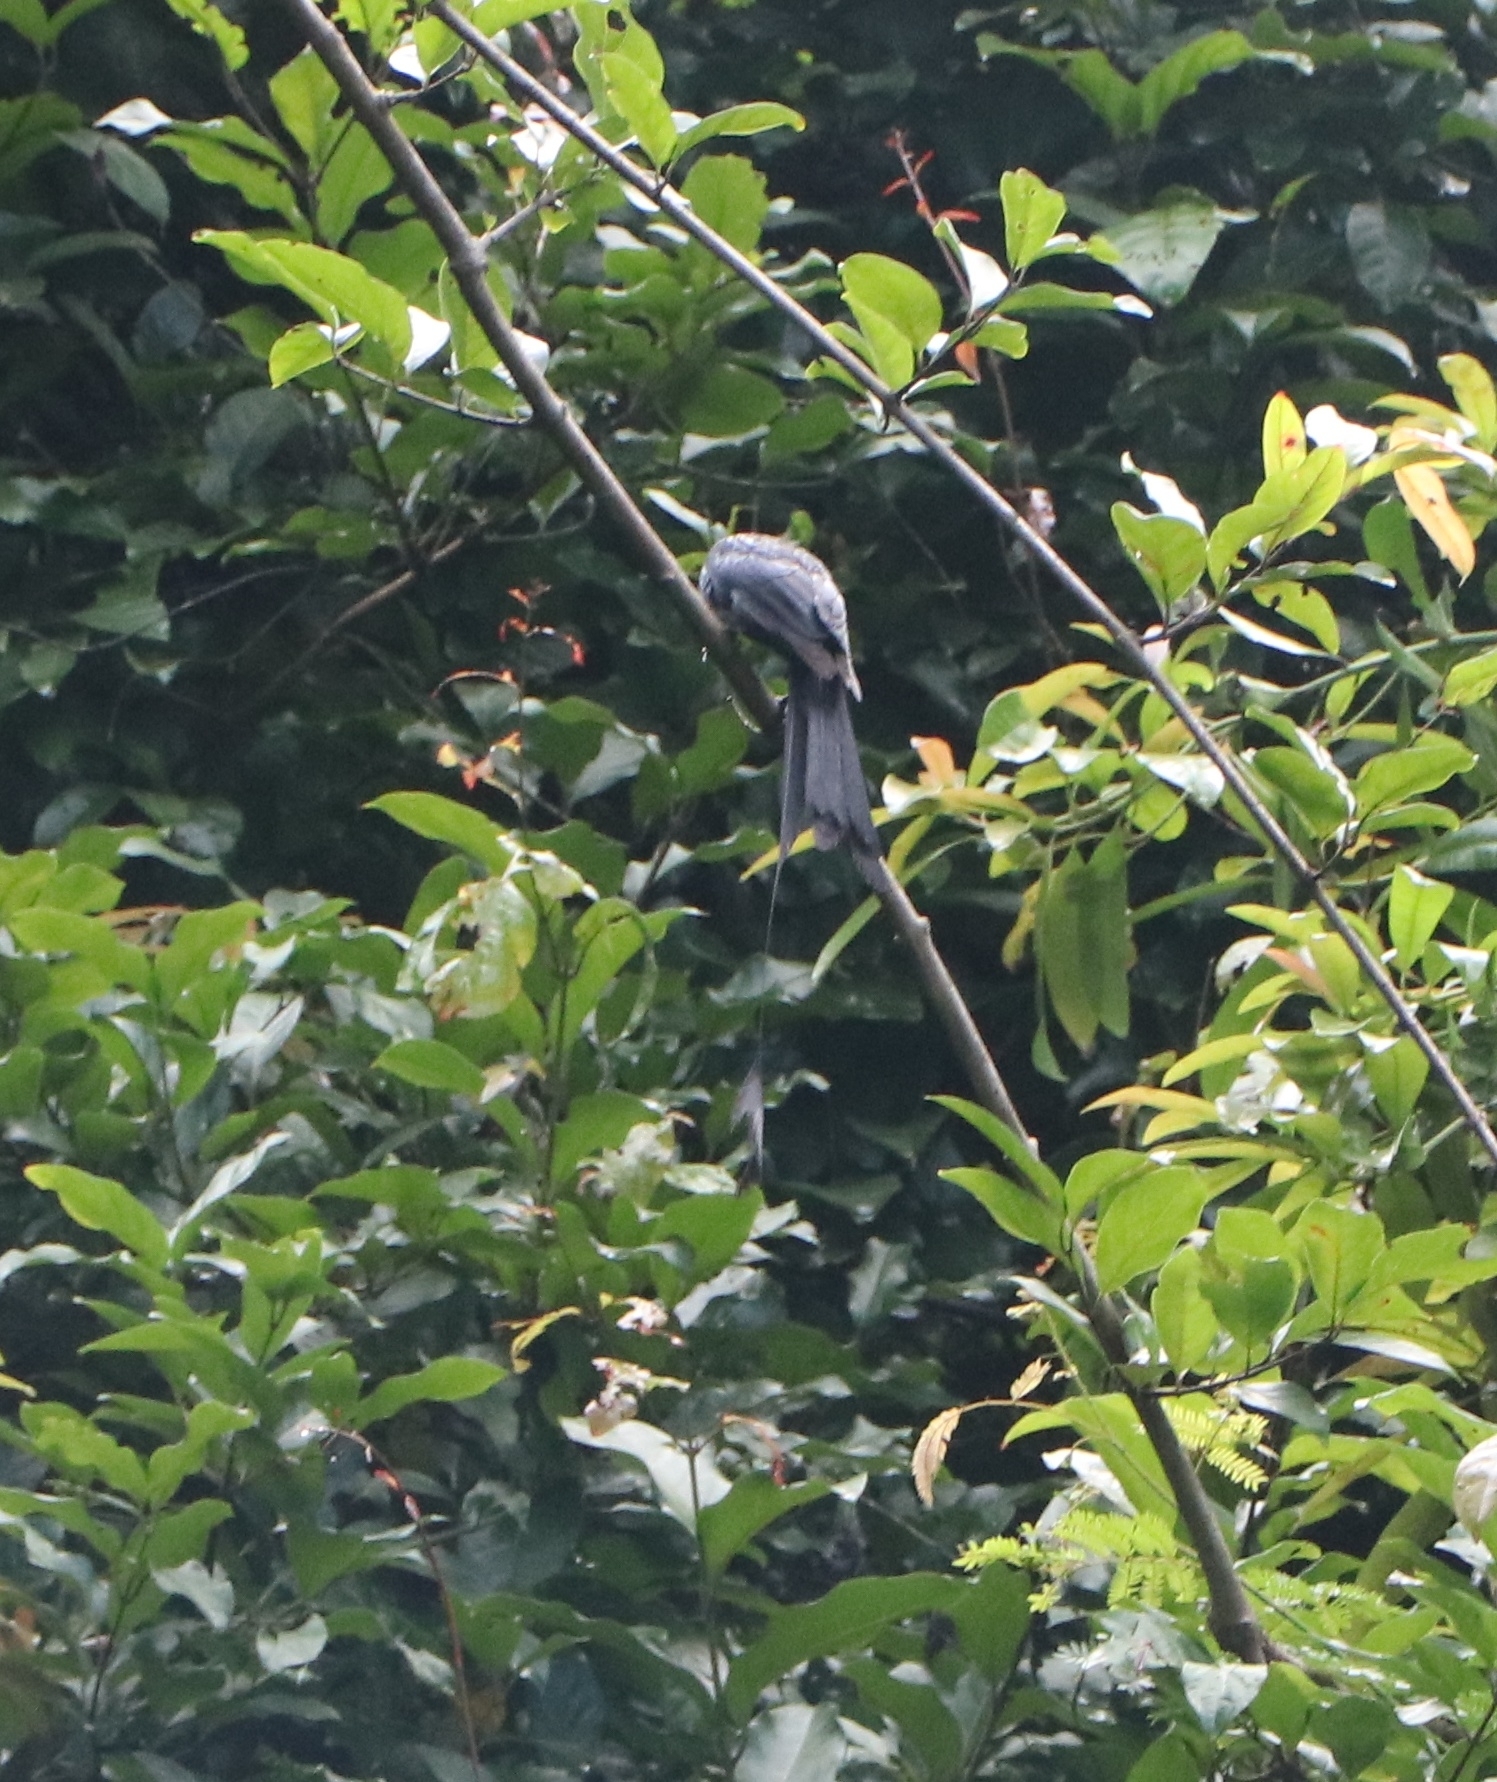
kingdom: Animalia
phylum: Chordata
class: Aves
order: Passeriformes
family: Dicruridae
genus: Dicrurus
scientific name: Dicrurus paradiseus
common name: Greater racket-tailed drongo
